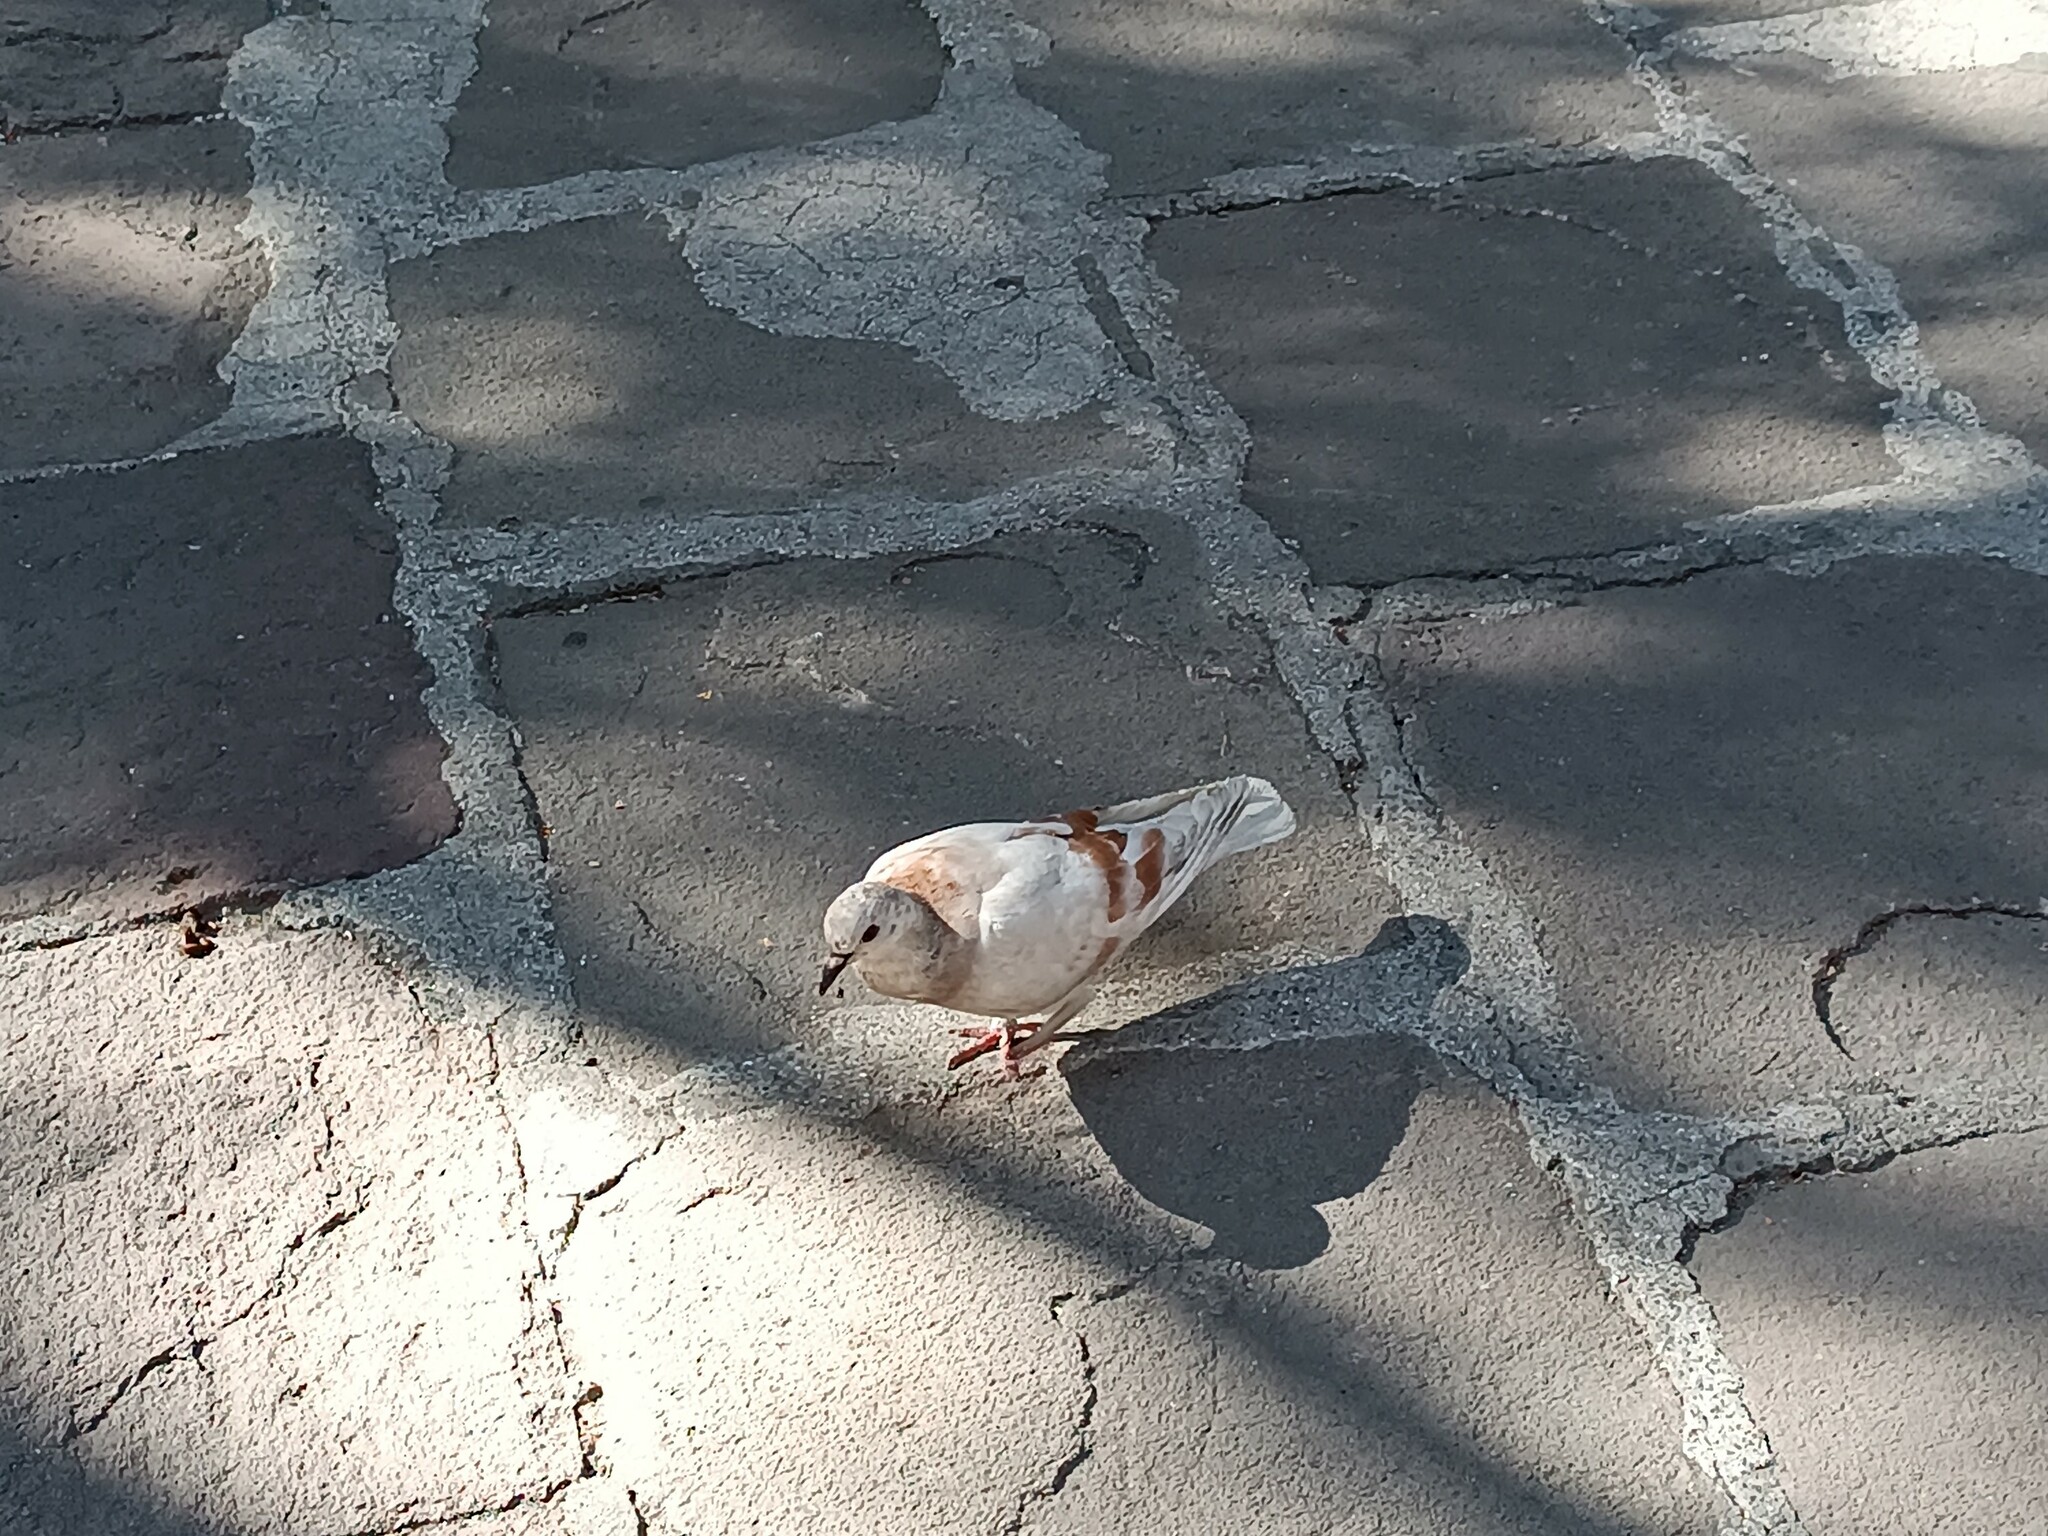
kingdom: Animalia
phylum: Chordata
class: Aves
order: Columbiformes
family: Columbidae
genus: Columba
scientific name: Columba livia
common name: Rock pigeon
